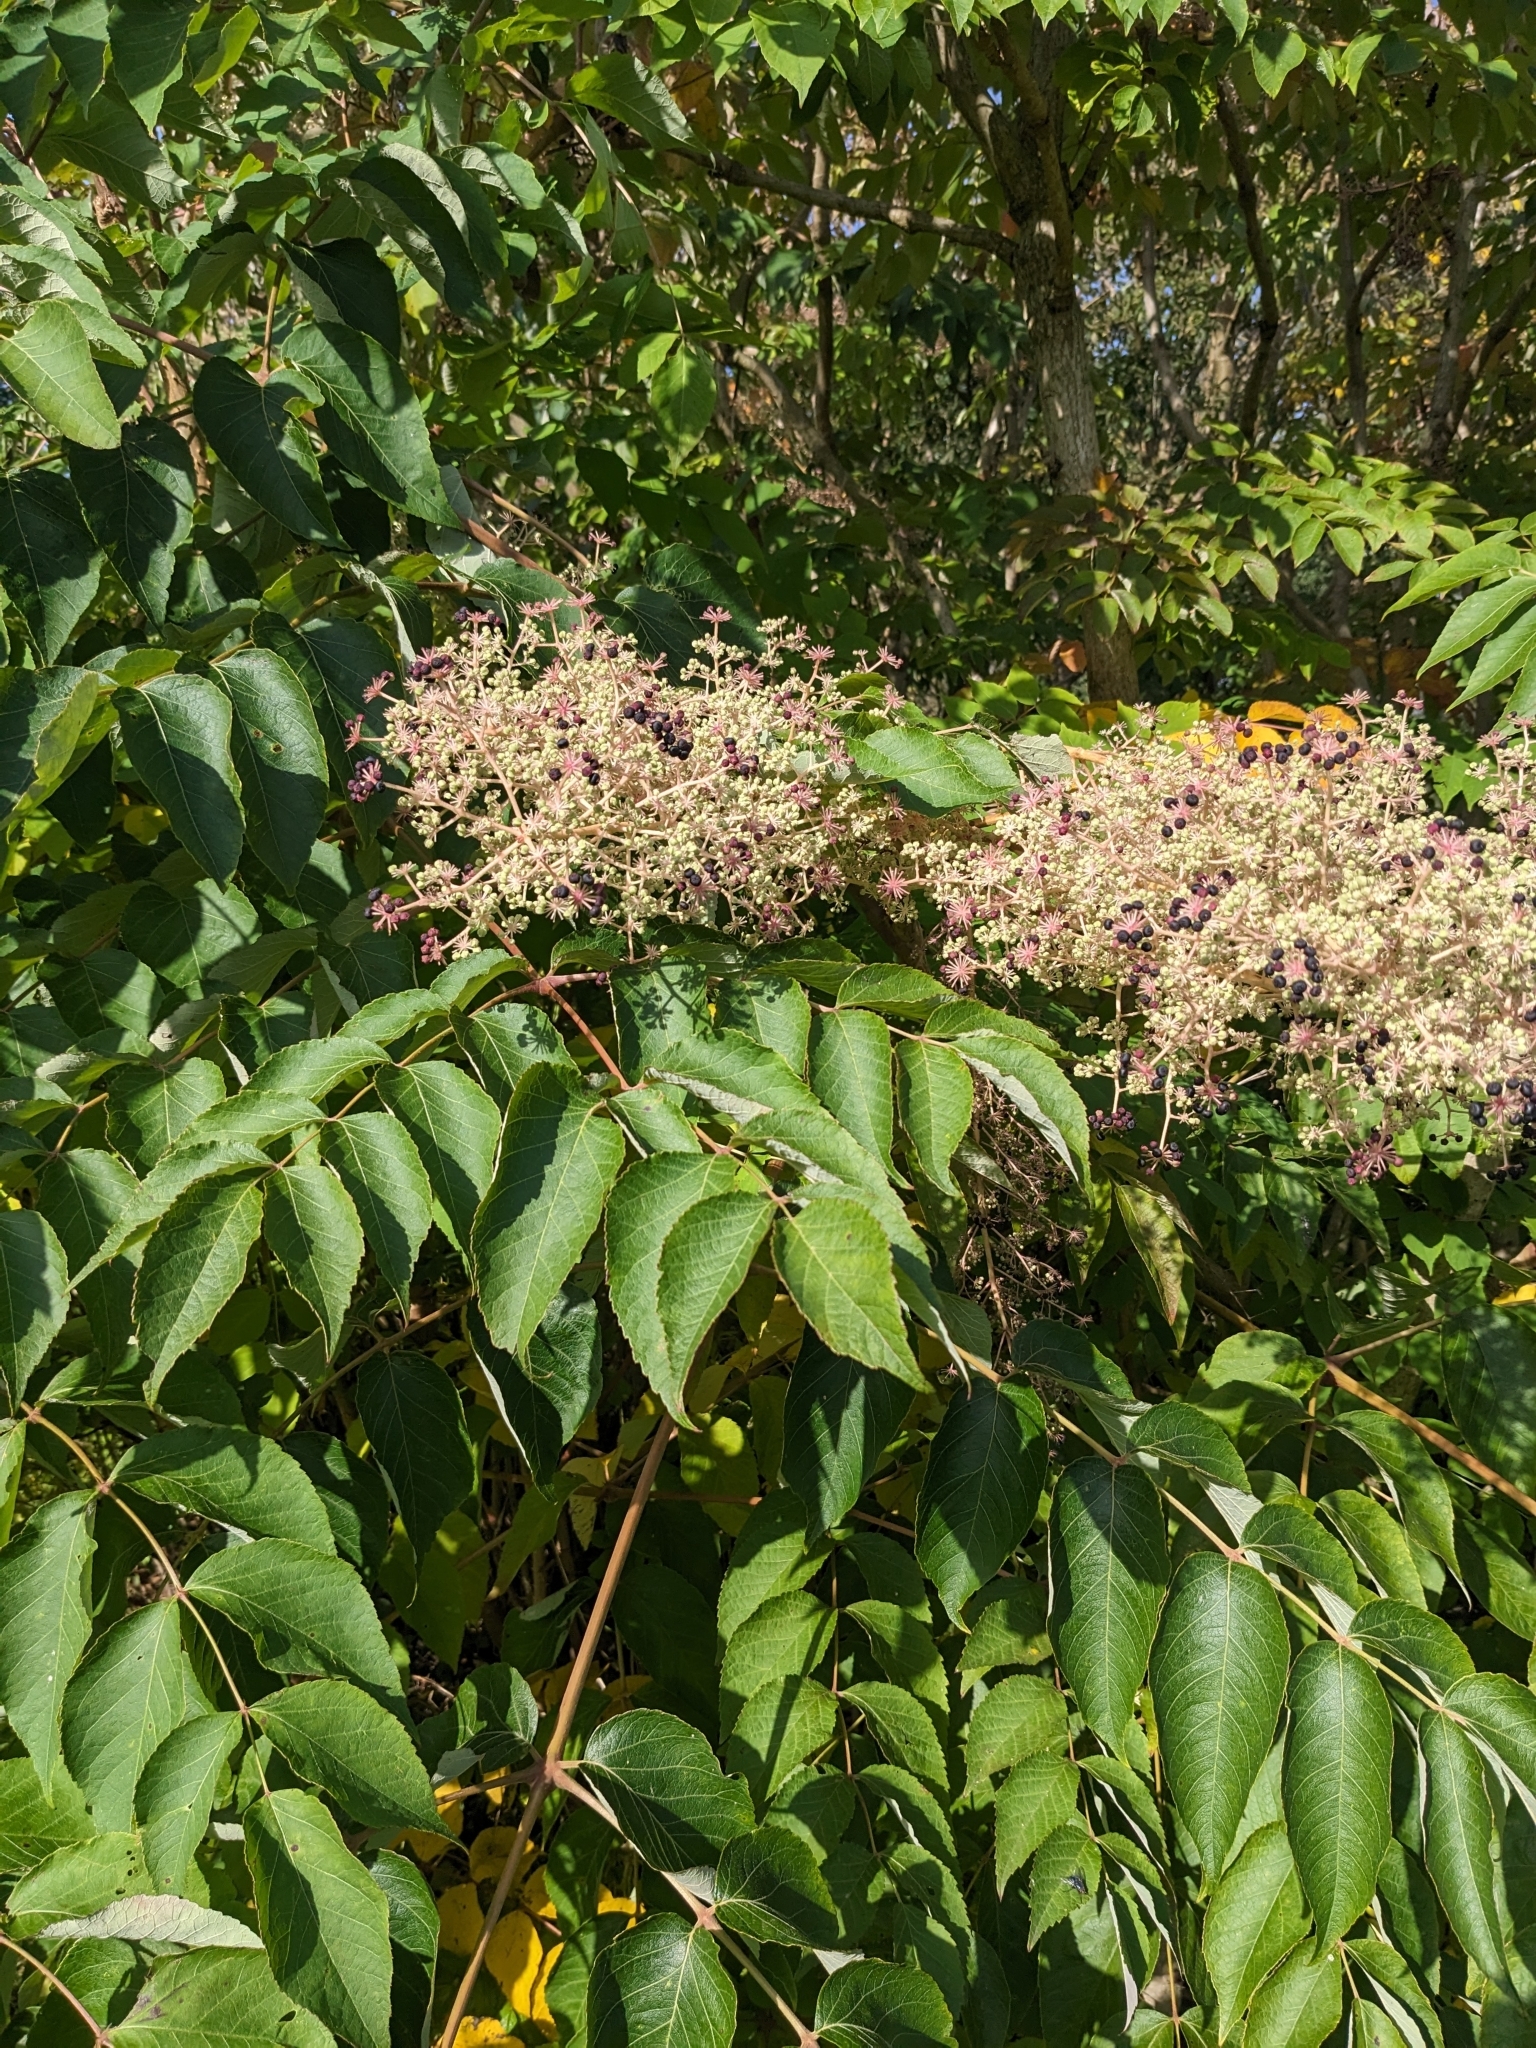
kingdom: Plantae
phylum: Tracheophyta
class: Magnoliopsida
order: Apiales
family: Araliaceae
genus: Aralia
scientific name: Aralia elata
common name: Japanese angelica-tree
